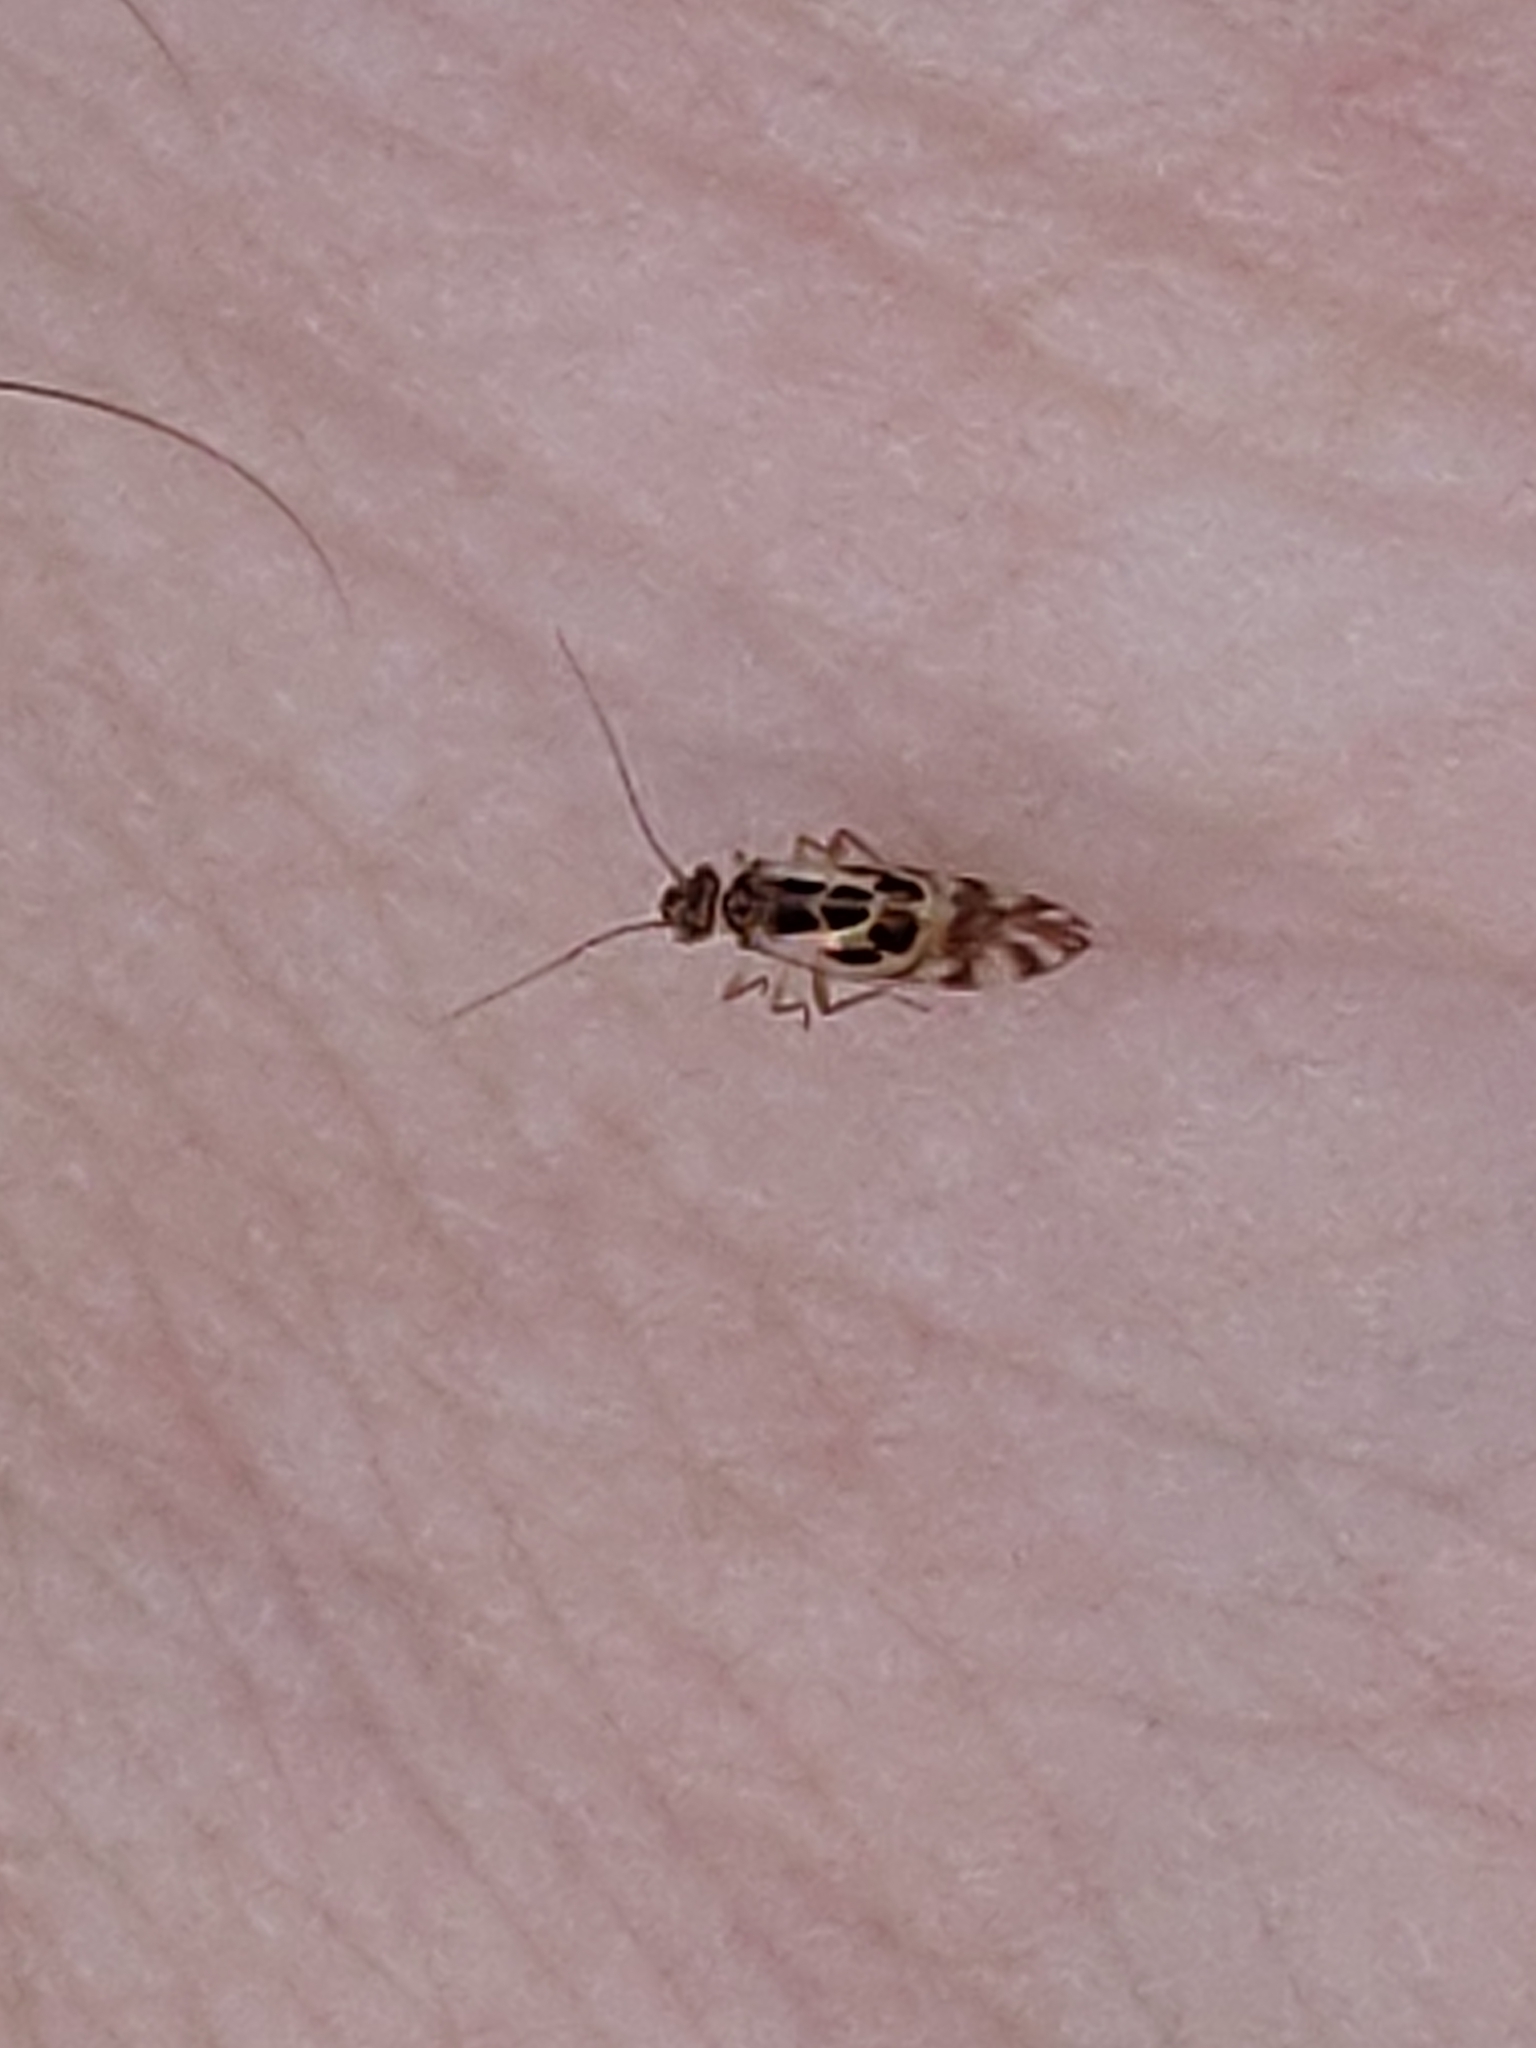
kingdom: Animalia
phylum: Arthropoda
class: Insecta
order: Psocodea
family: Stenopsocidae
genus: Graphopsocus
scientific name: Graphopsocus cruciatus
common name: Lizard bark louse
